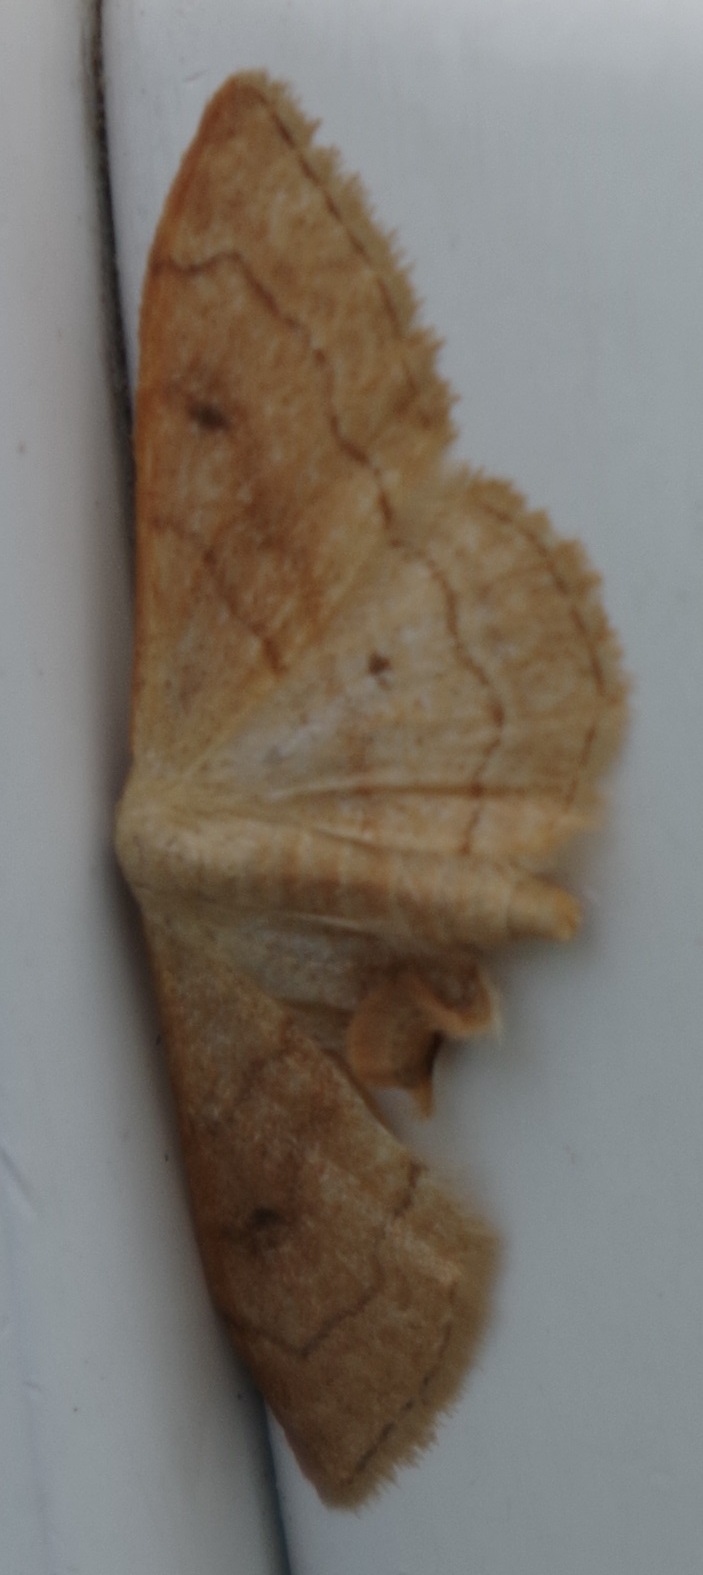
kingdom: Animalia
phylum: Arthropoda
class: Insecta
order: Lepidoptera
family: Geometridae
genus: Idaea
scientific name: Idaea bilinearia
